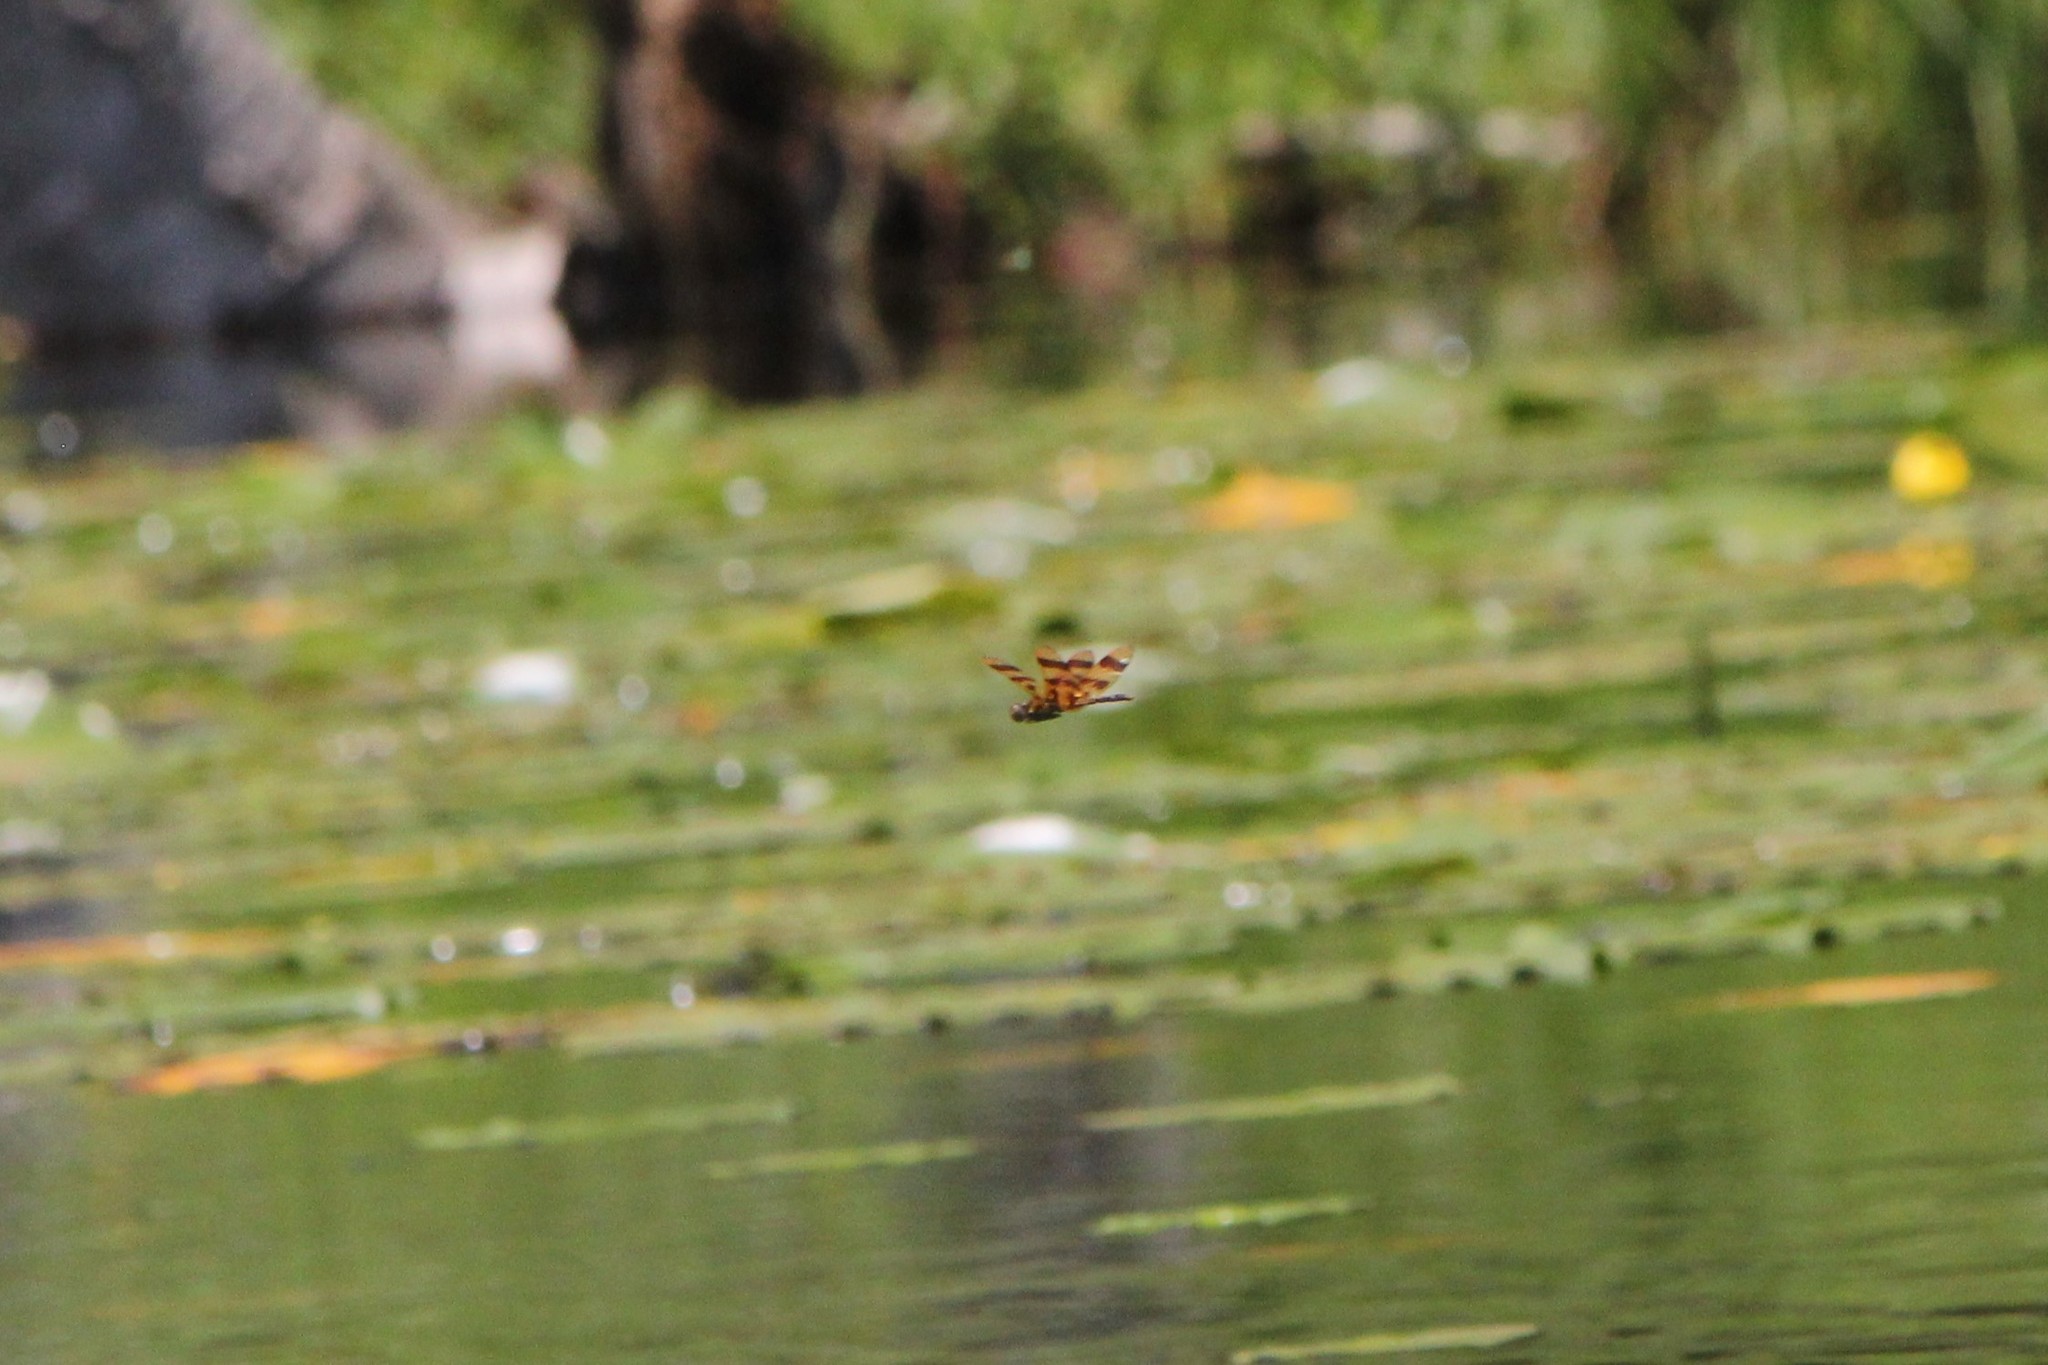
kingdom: Animalia
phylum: Arthropoda
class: Insecta
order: Odonata
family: Libellulidae
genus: Celithemis
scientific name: Celithemis eponina
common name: Halloween pennant
